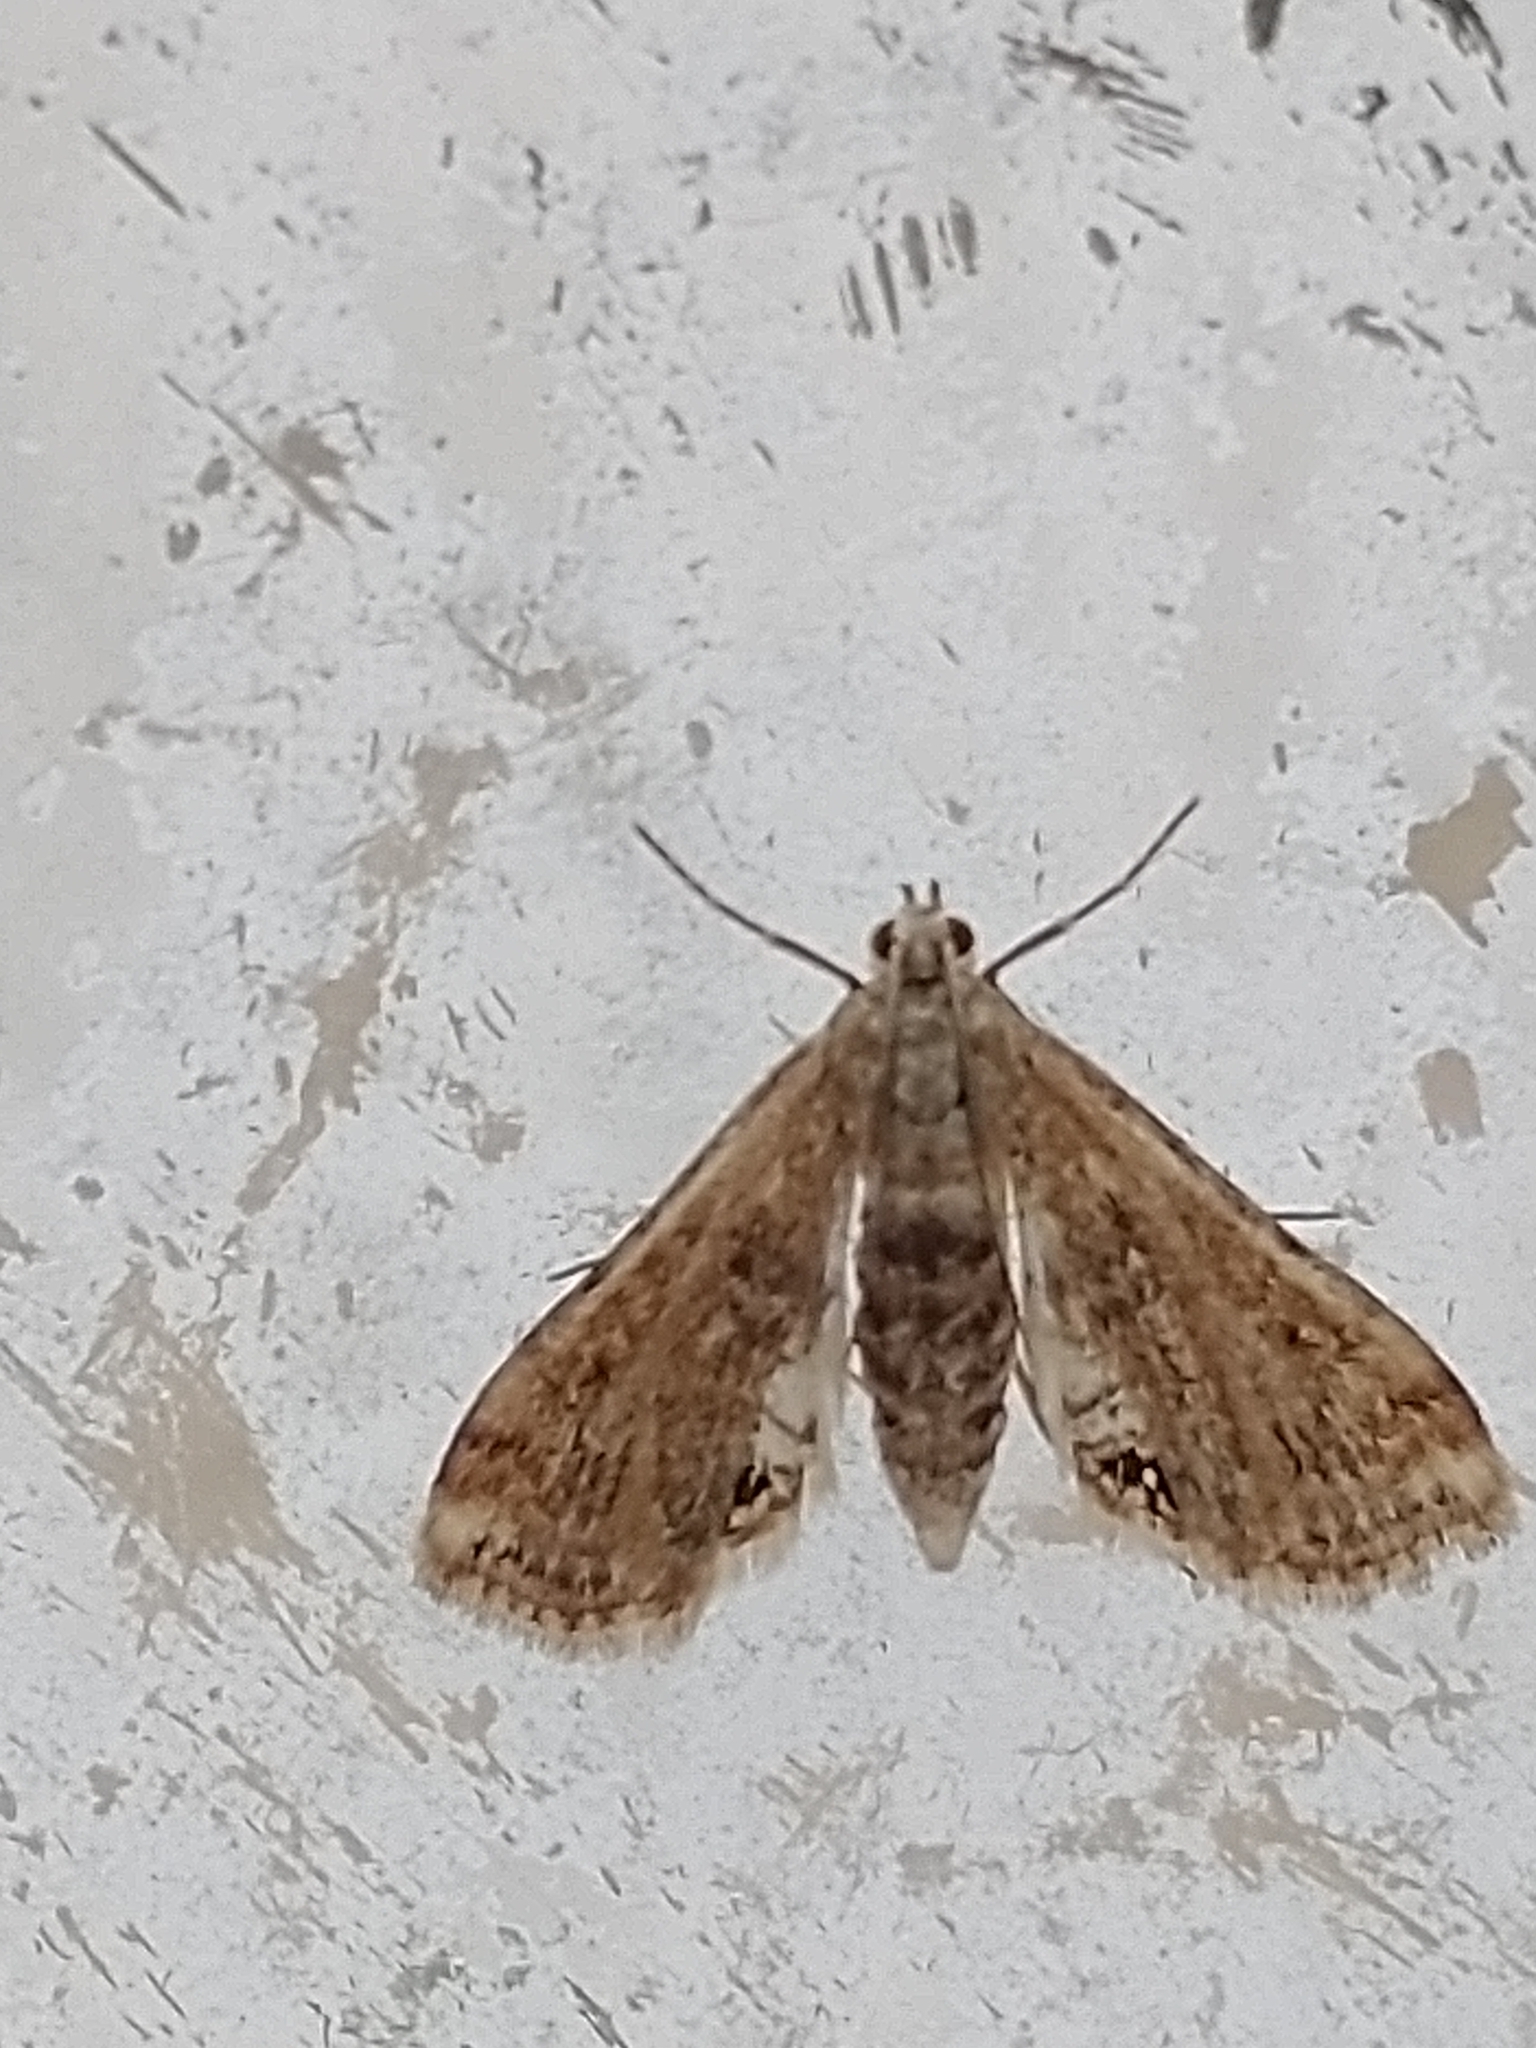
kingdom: Animalia
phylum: Arthropoda
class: Insecta
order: Lepidoptera
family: Crambidae
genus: Cataclysta
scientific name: Cataclysta lemnata
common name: Small china-mark
